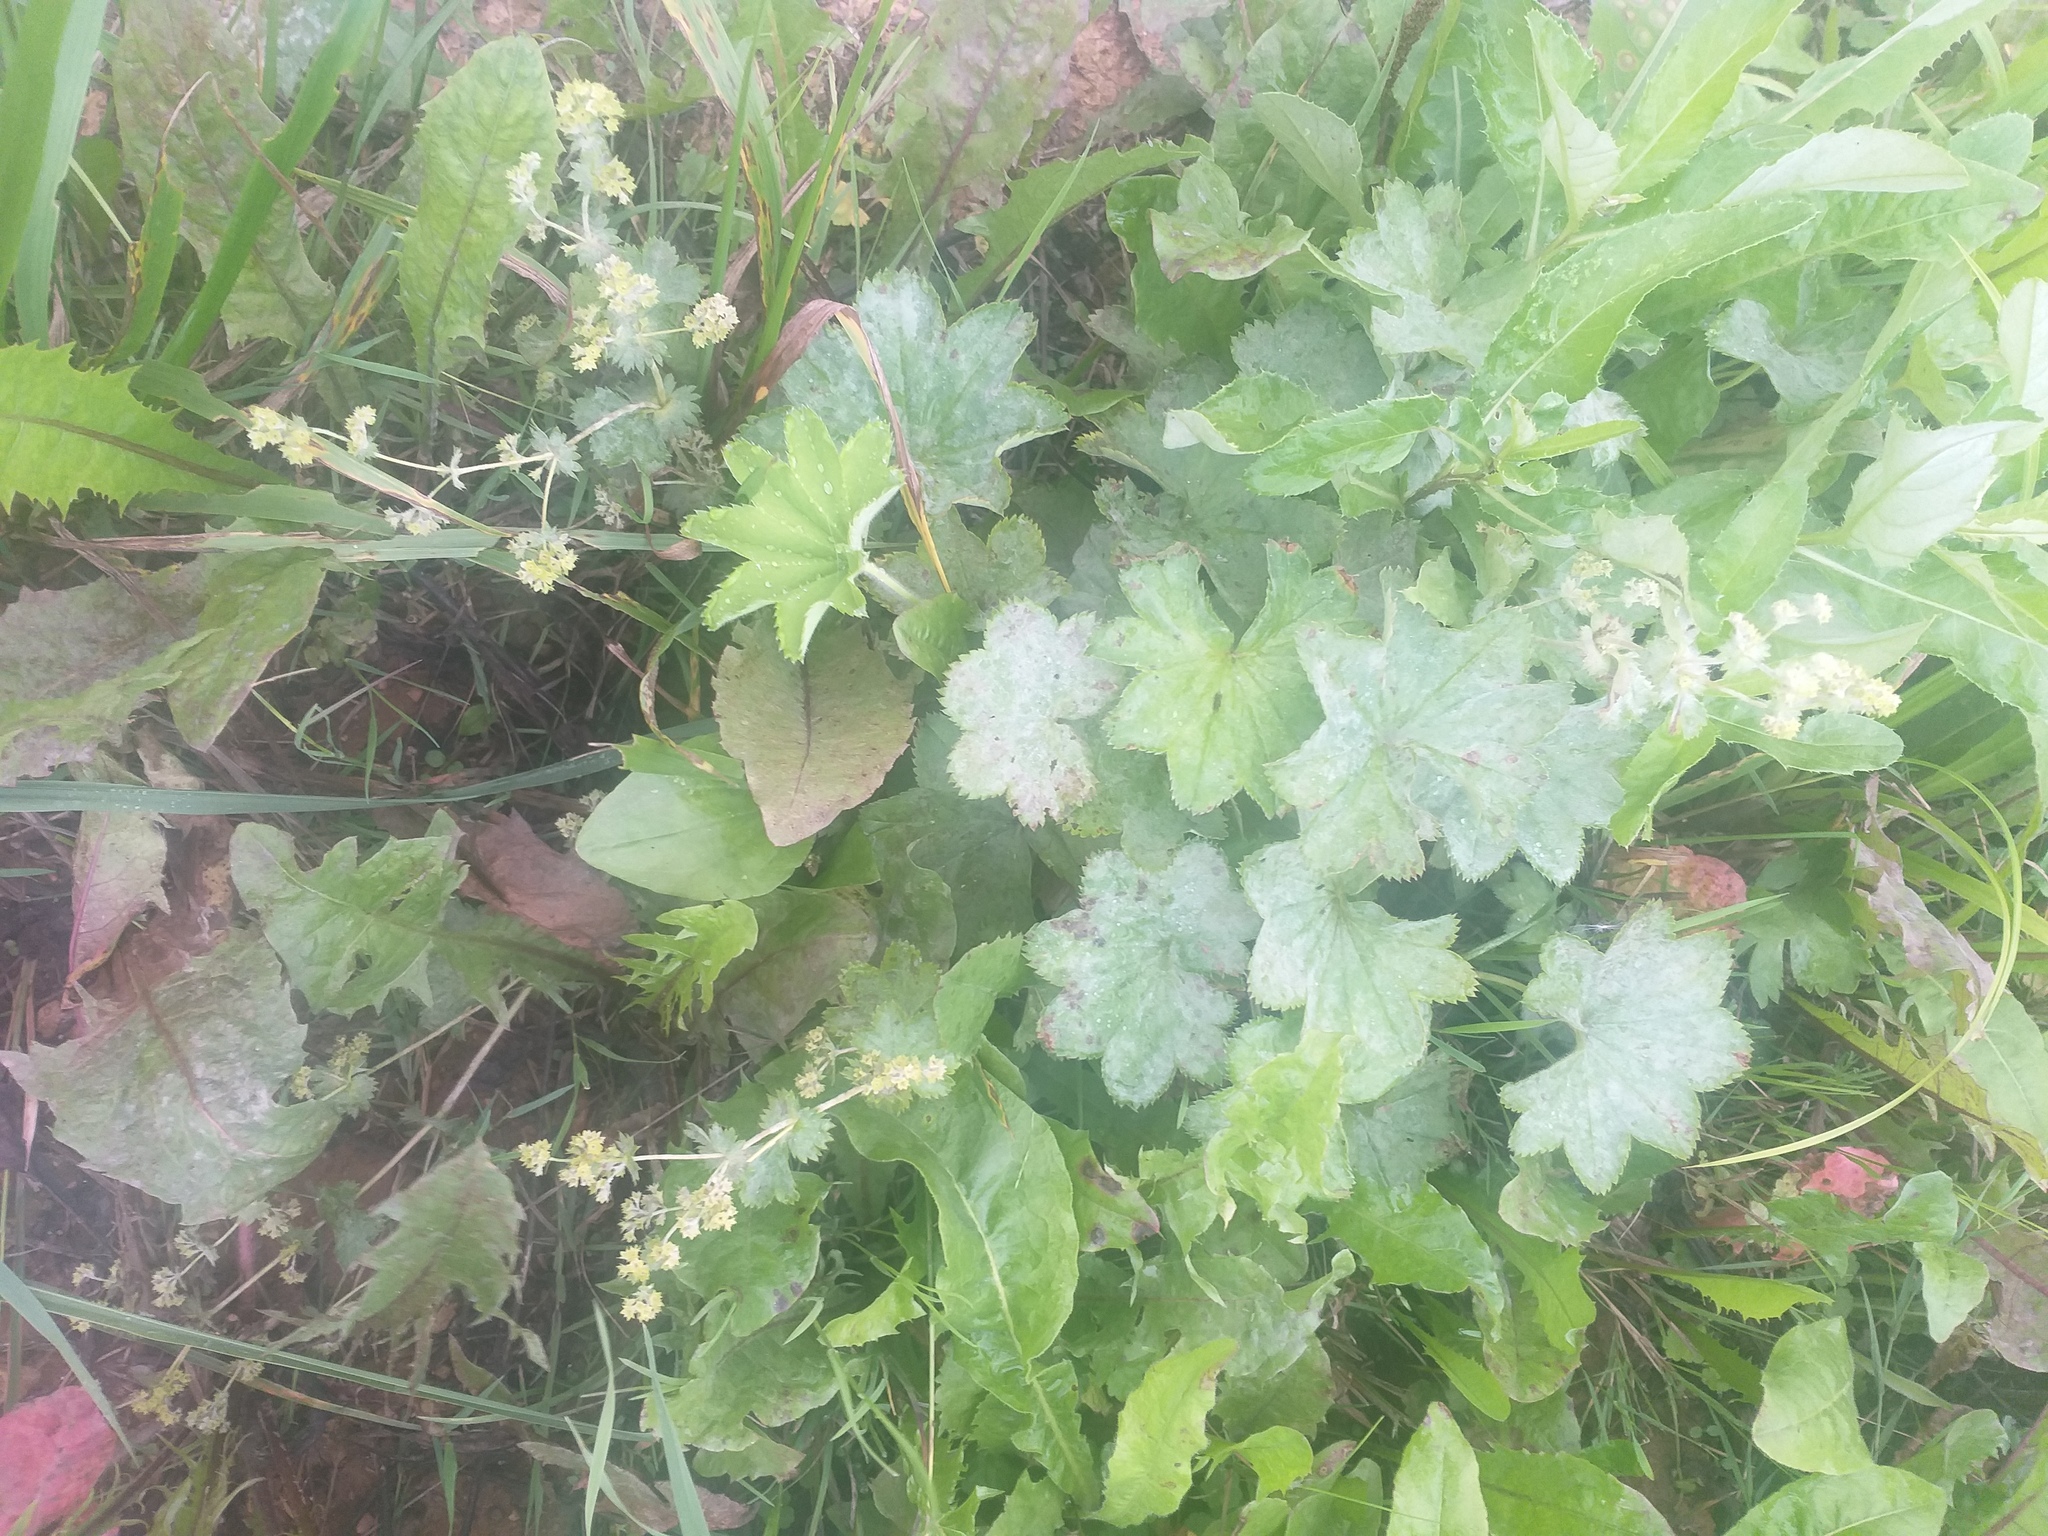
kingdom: Plantae
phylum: Tracheophyta
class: Magnoliopsida
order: Rosales
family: Rosaceae
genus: Alchemilla
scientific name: Alchemilla subcrenata
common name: Broadtooth lady's mantle
